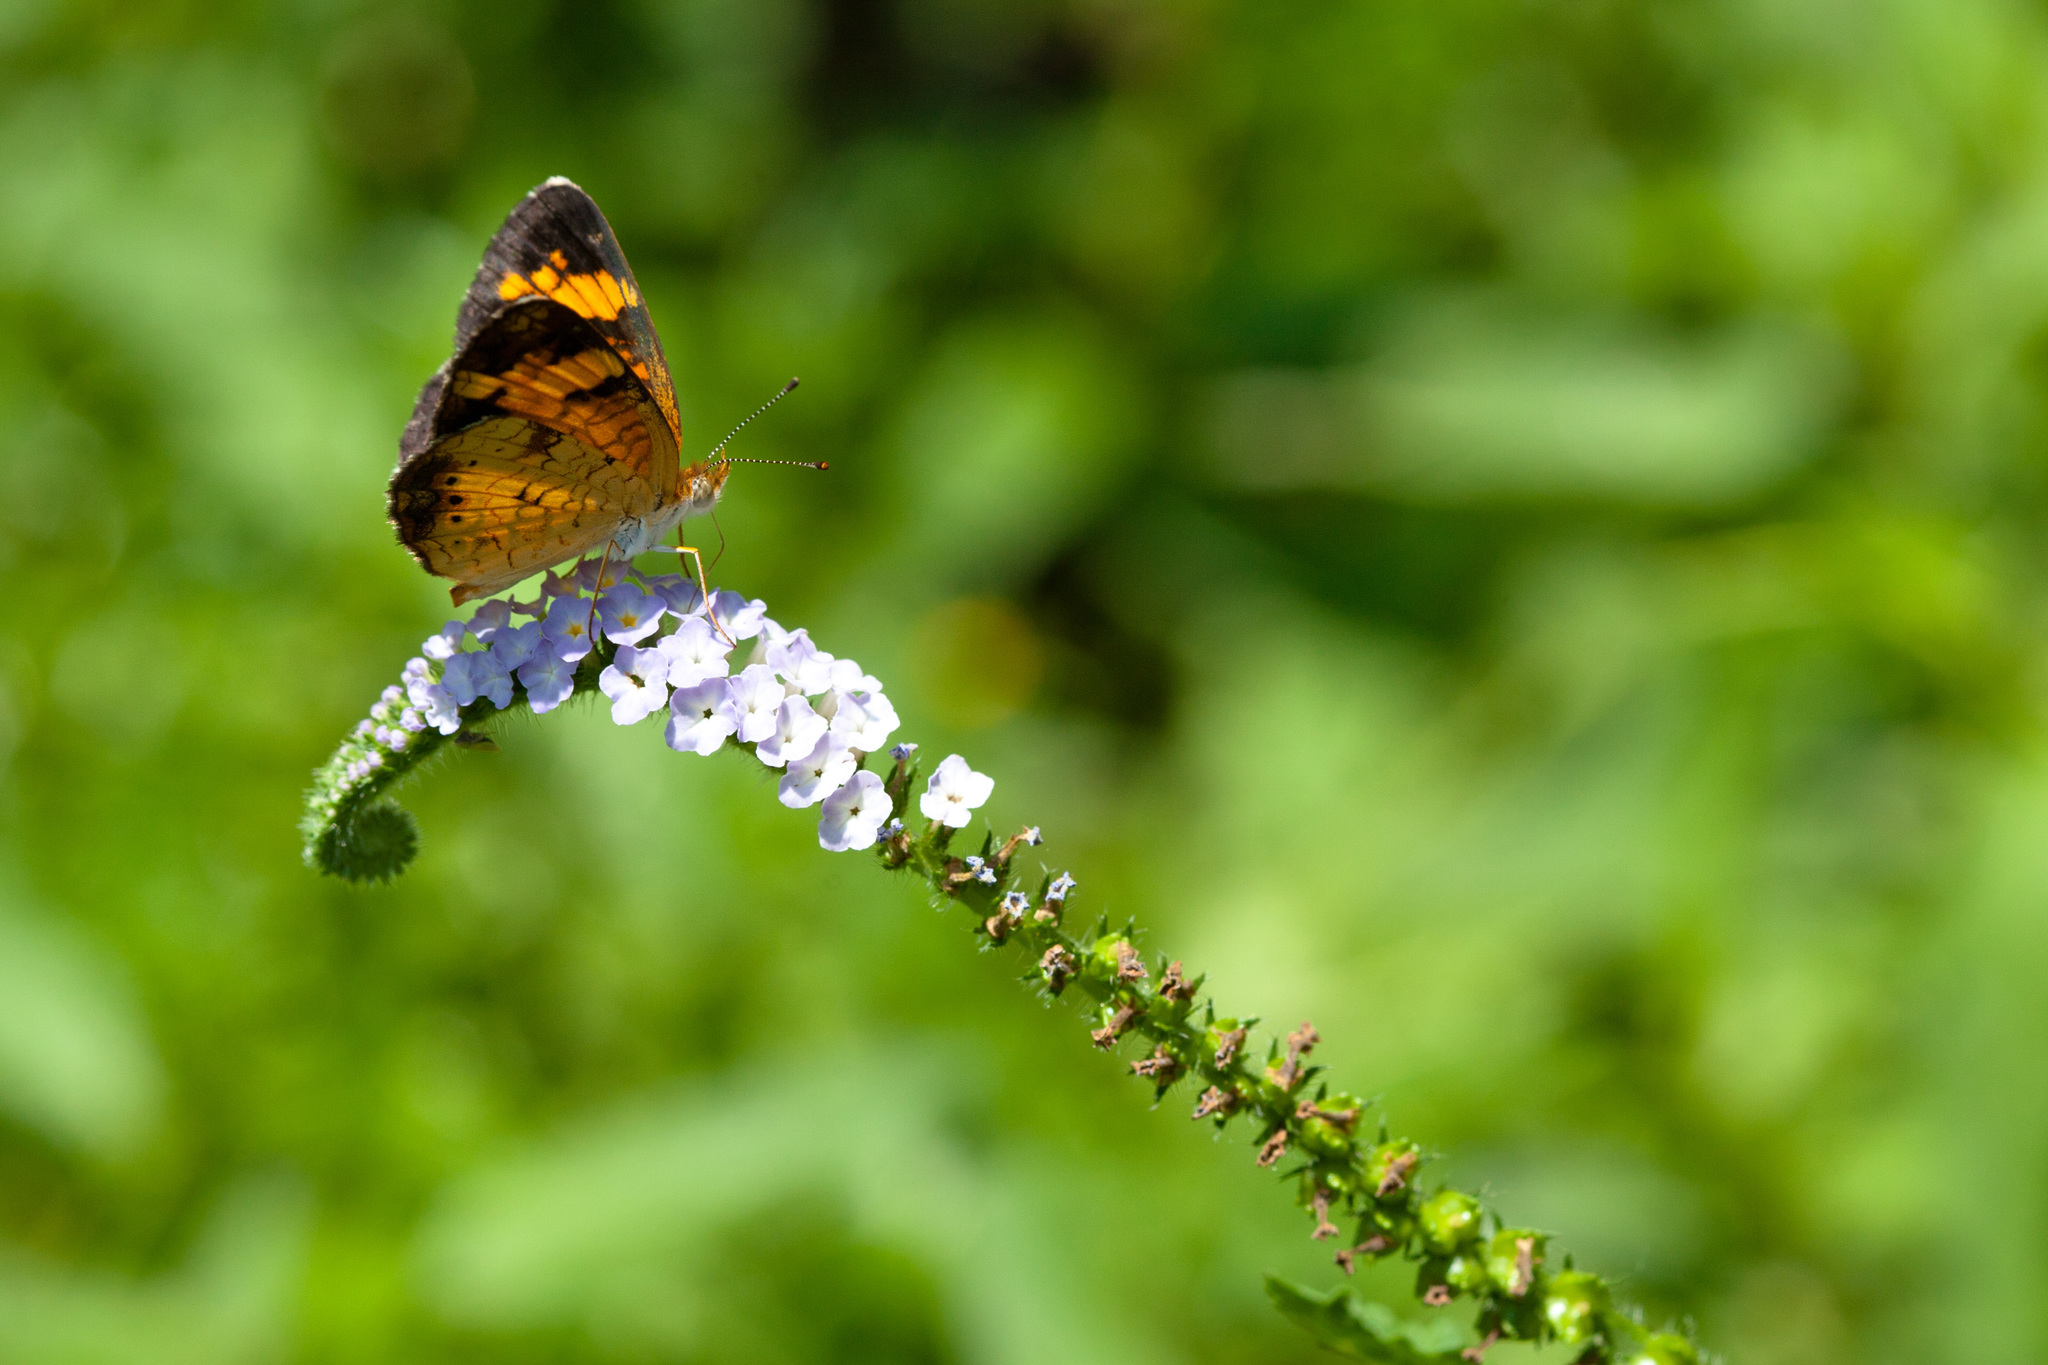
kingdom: Animalia
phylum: Arthropoda
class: Insecta
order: Lepidoptera
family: Nymphalidae
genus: Phyciodes
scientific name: Phyciodes tharos
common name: Pearl crescent
